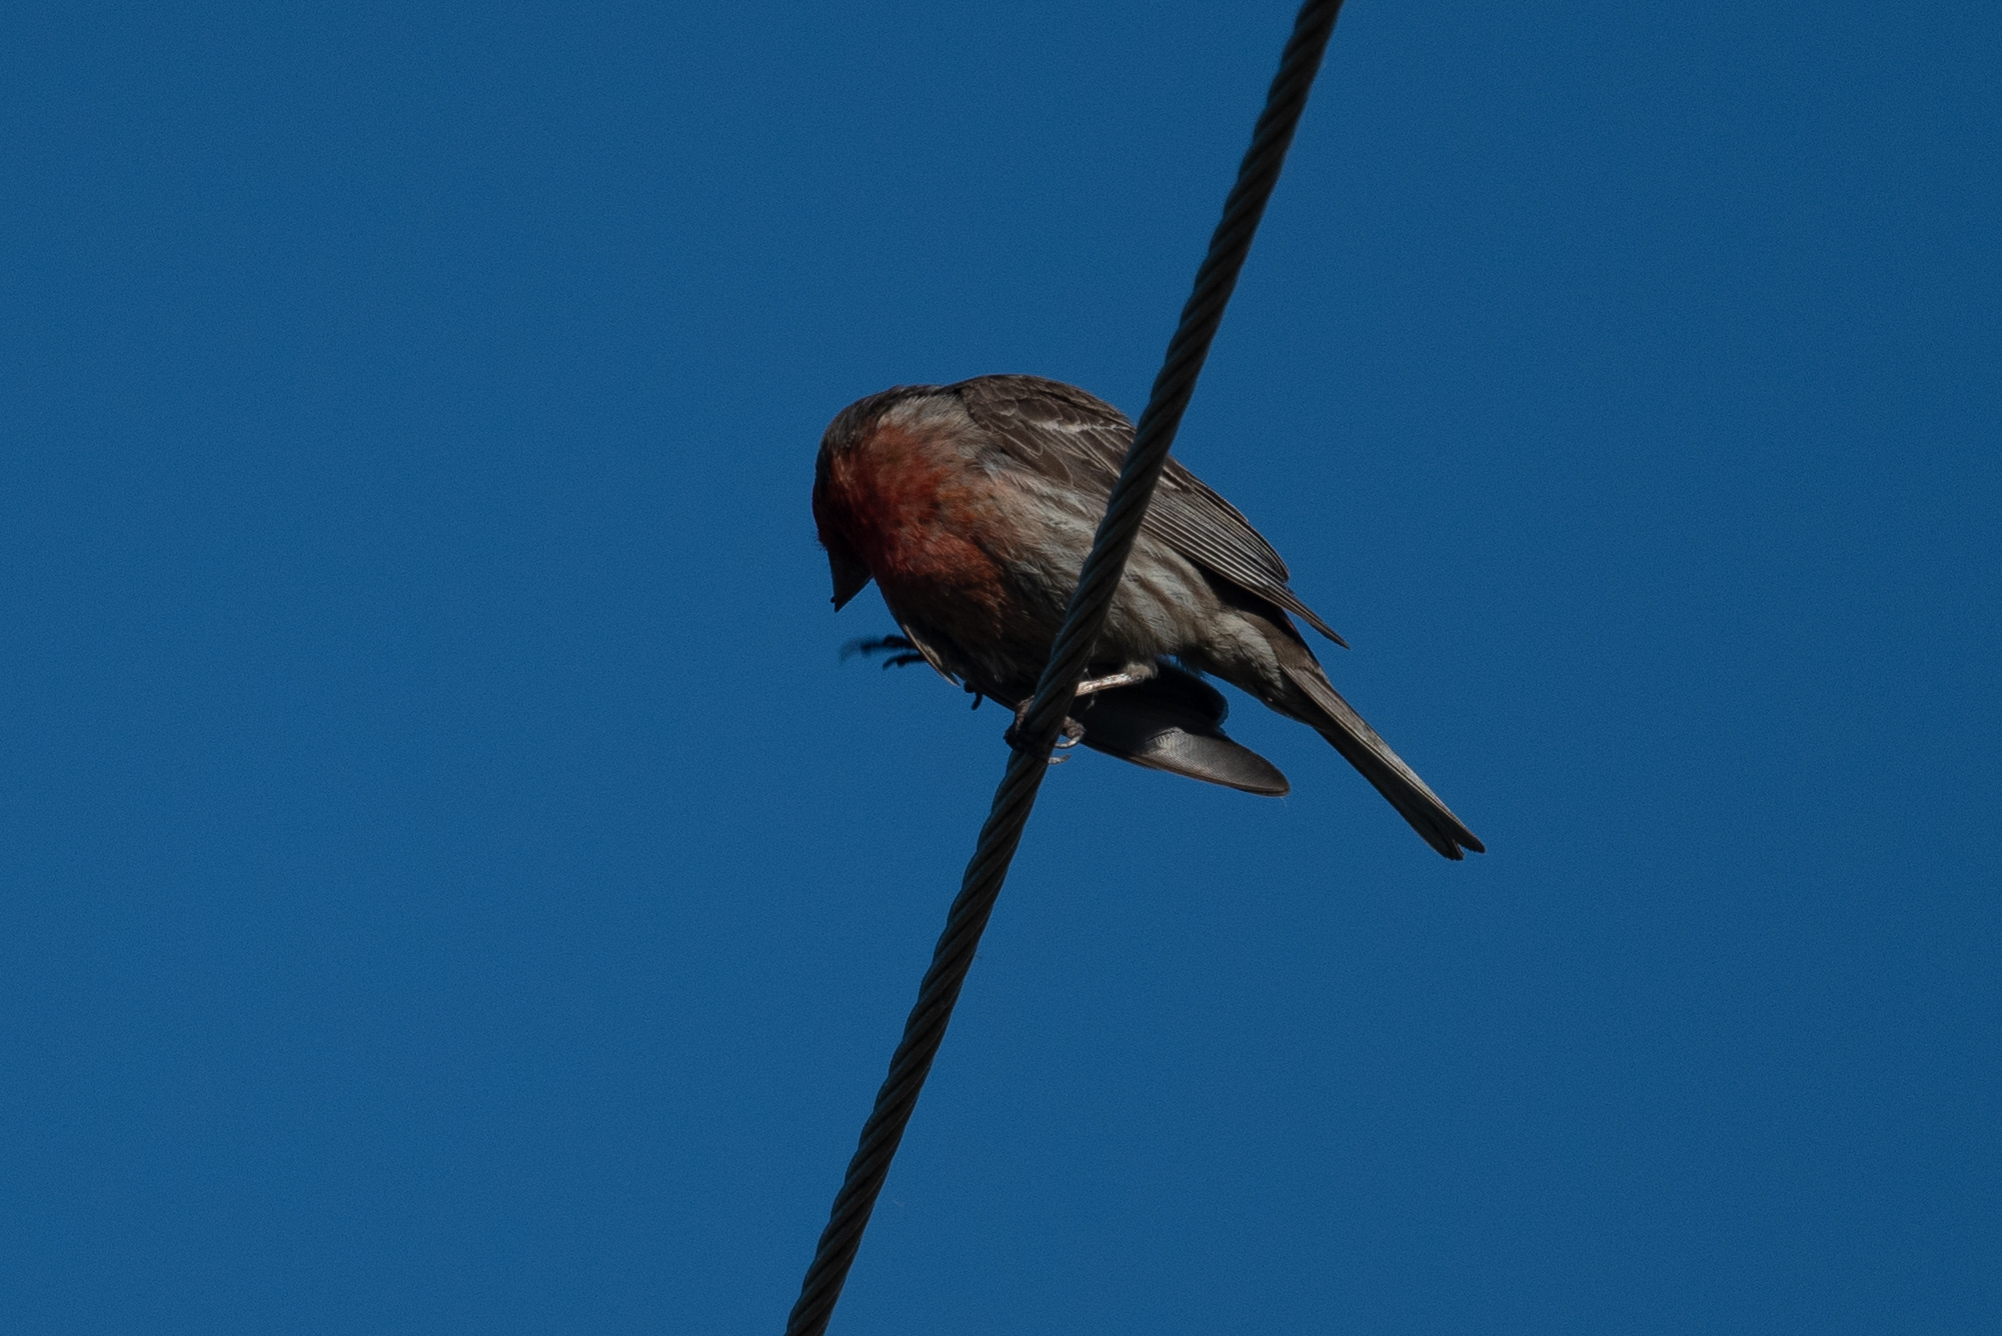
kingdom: Animalia
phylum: Chordata
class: Aves
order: Passeriformes
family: Fringillidae
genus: Haemorhous
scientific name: Haemorhous mexicanus
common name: House finch
